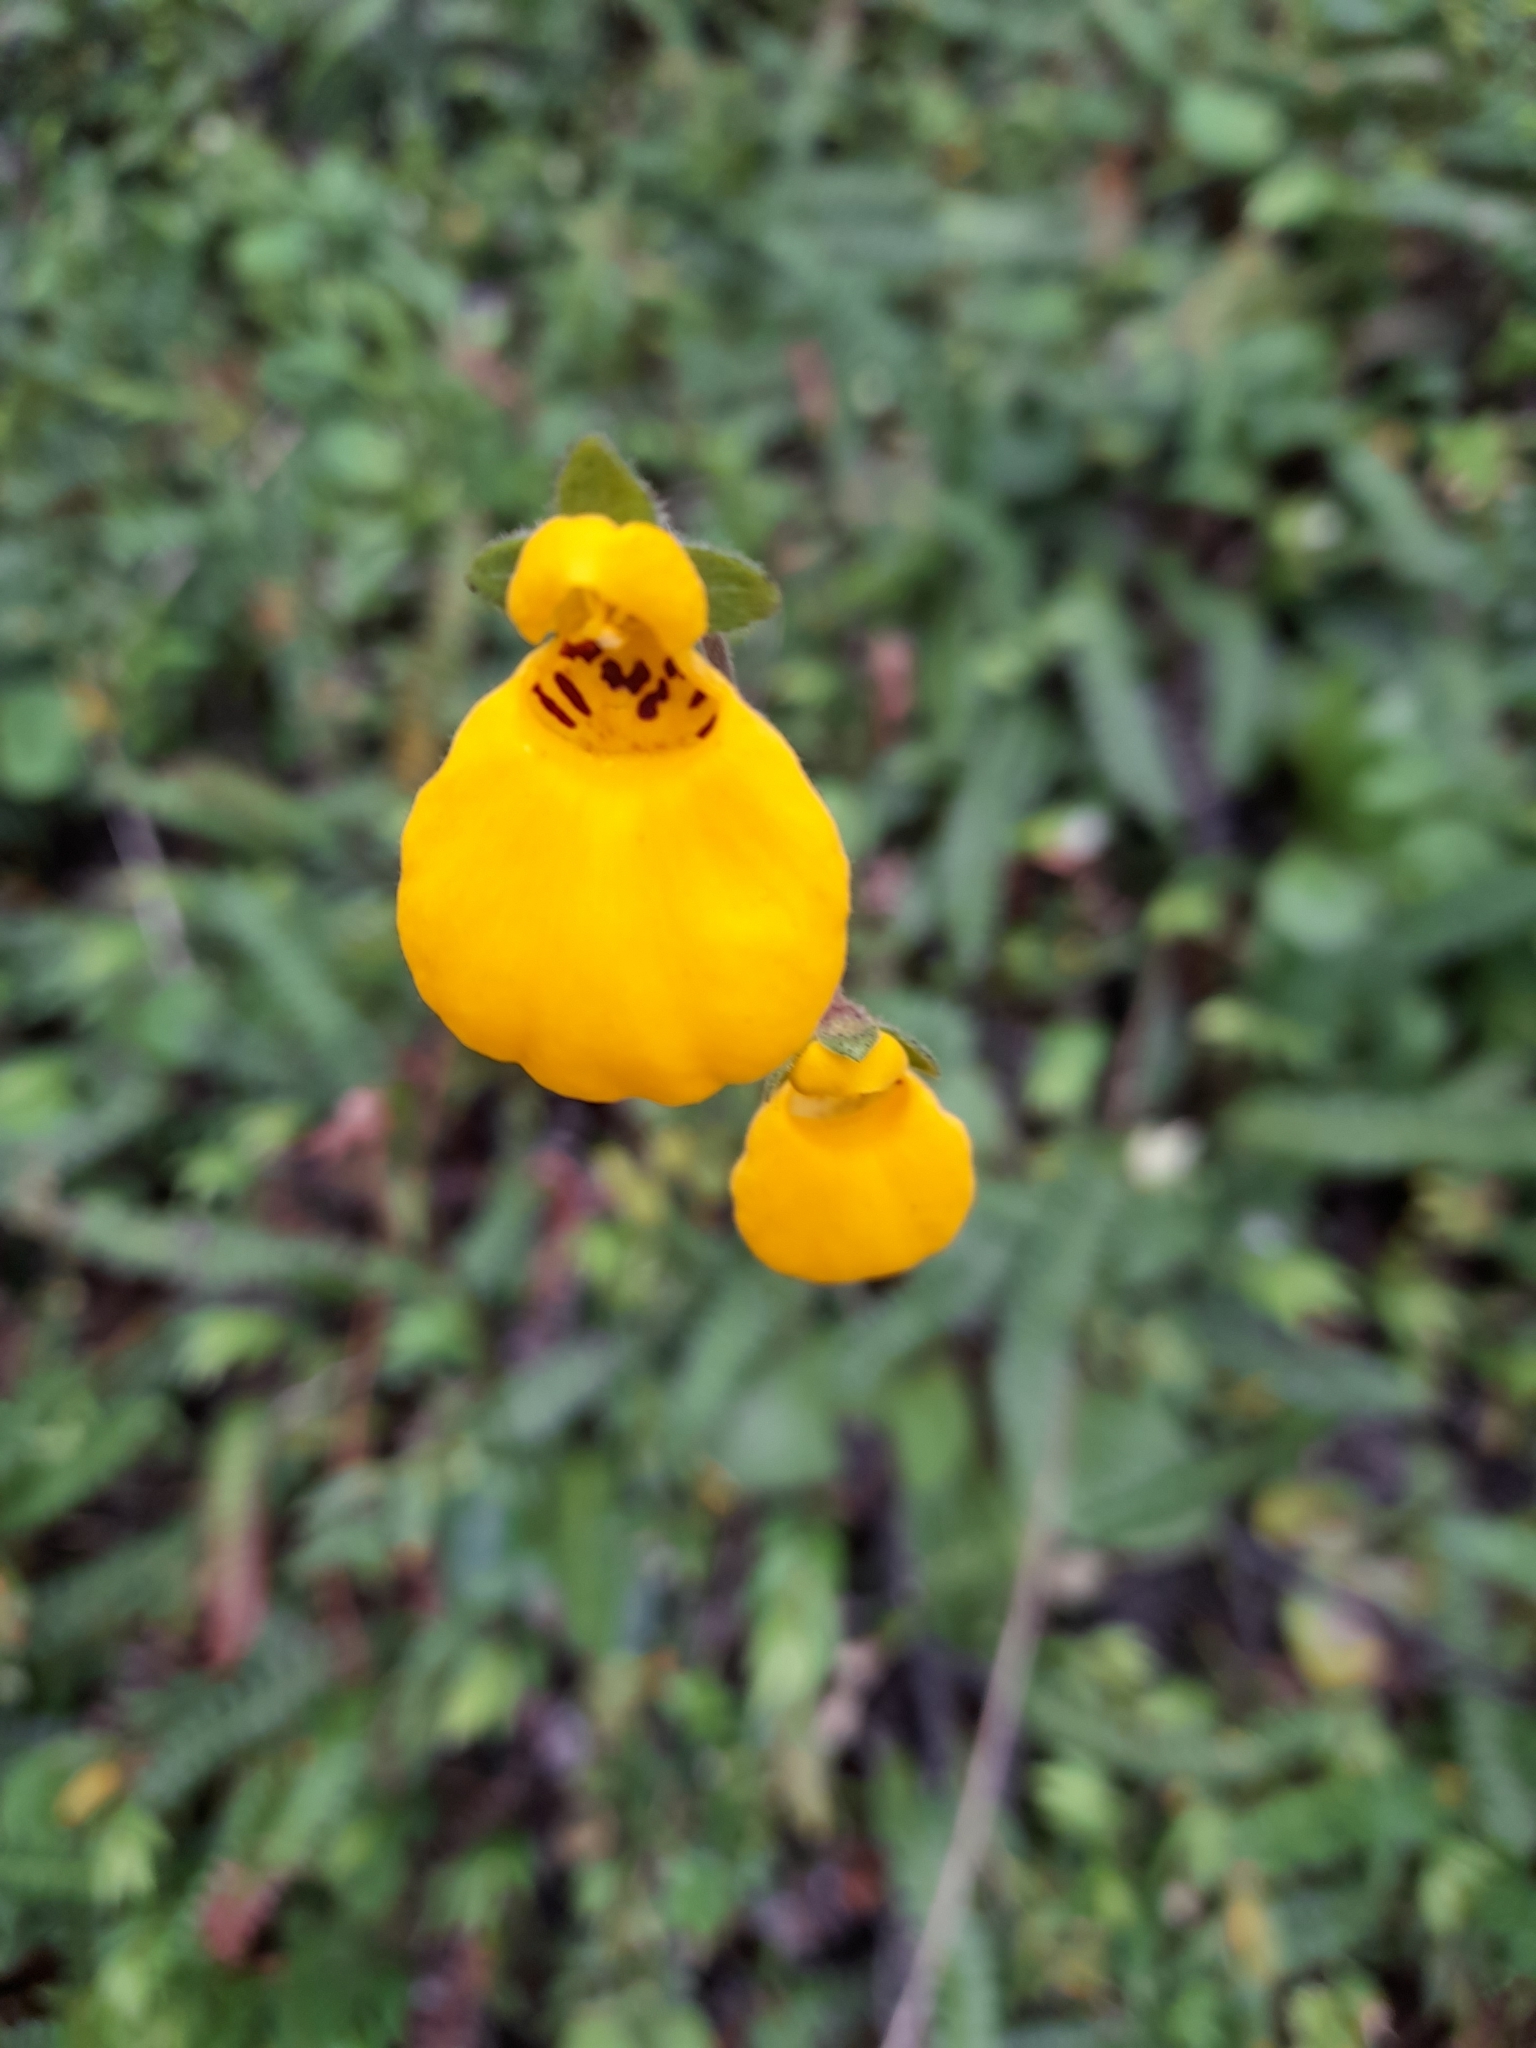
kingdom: Plantae
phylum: Tracheophyta
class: Magnoliopsida
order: Lamiales
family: Calceolariaceae
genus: Calceolaria
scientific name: Calceolaria biflora
